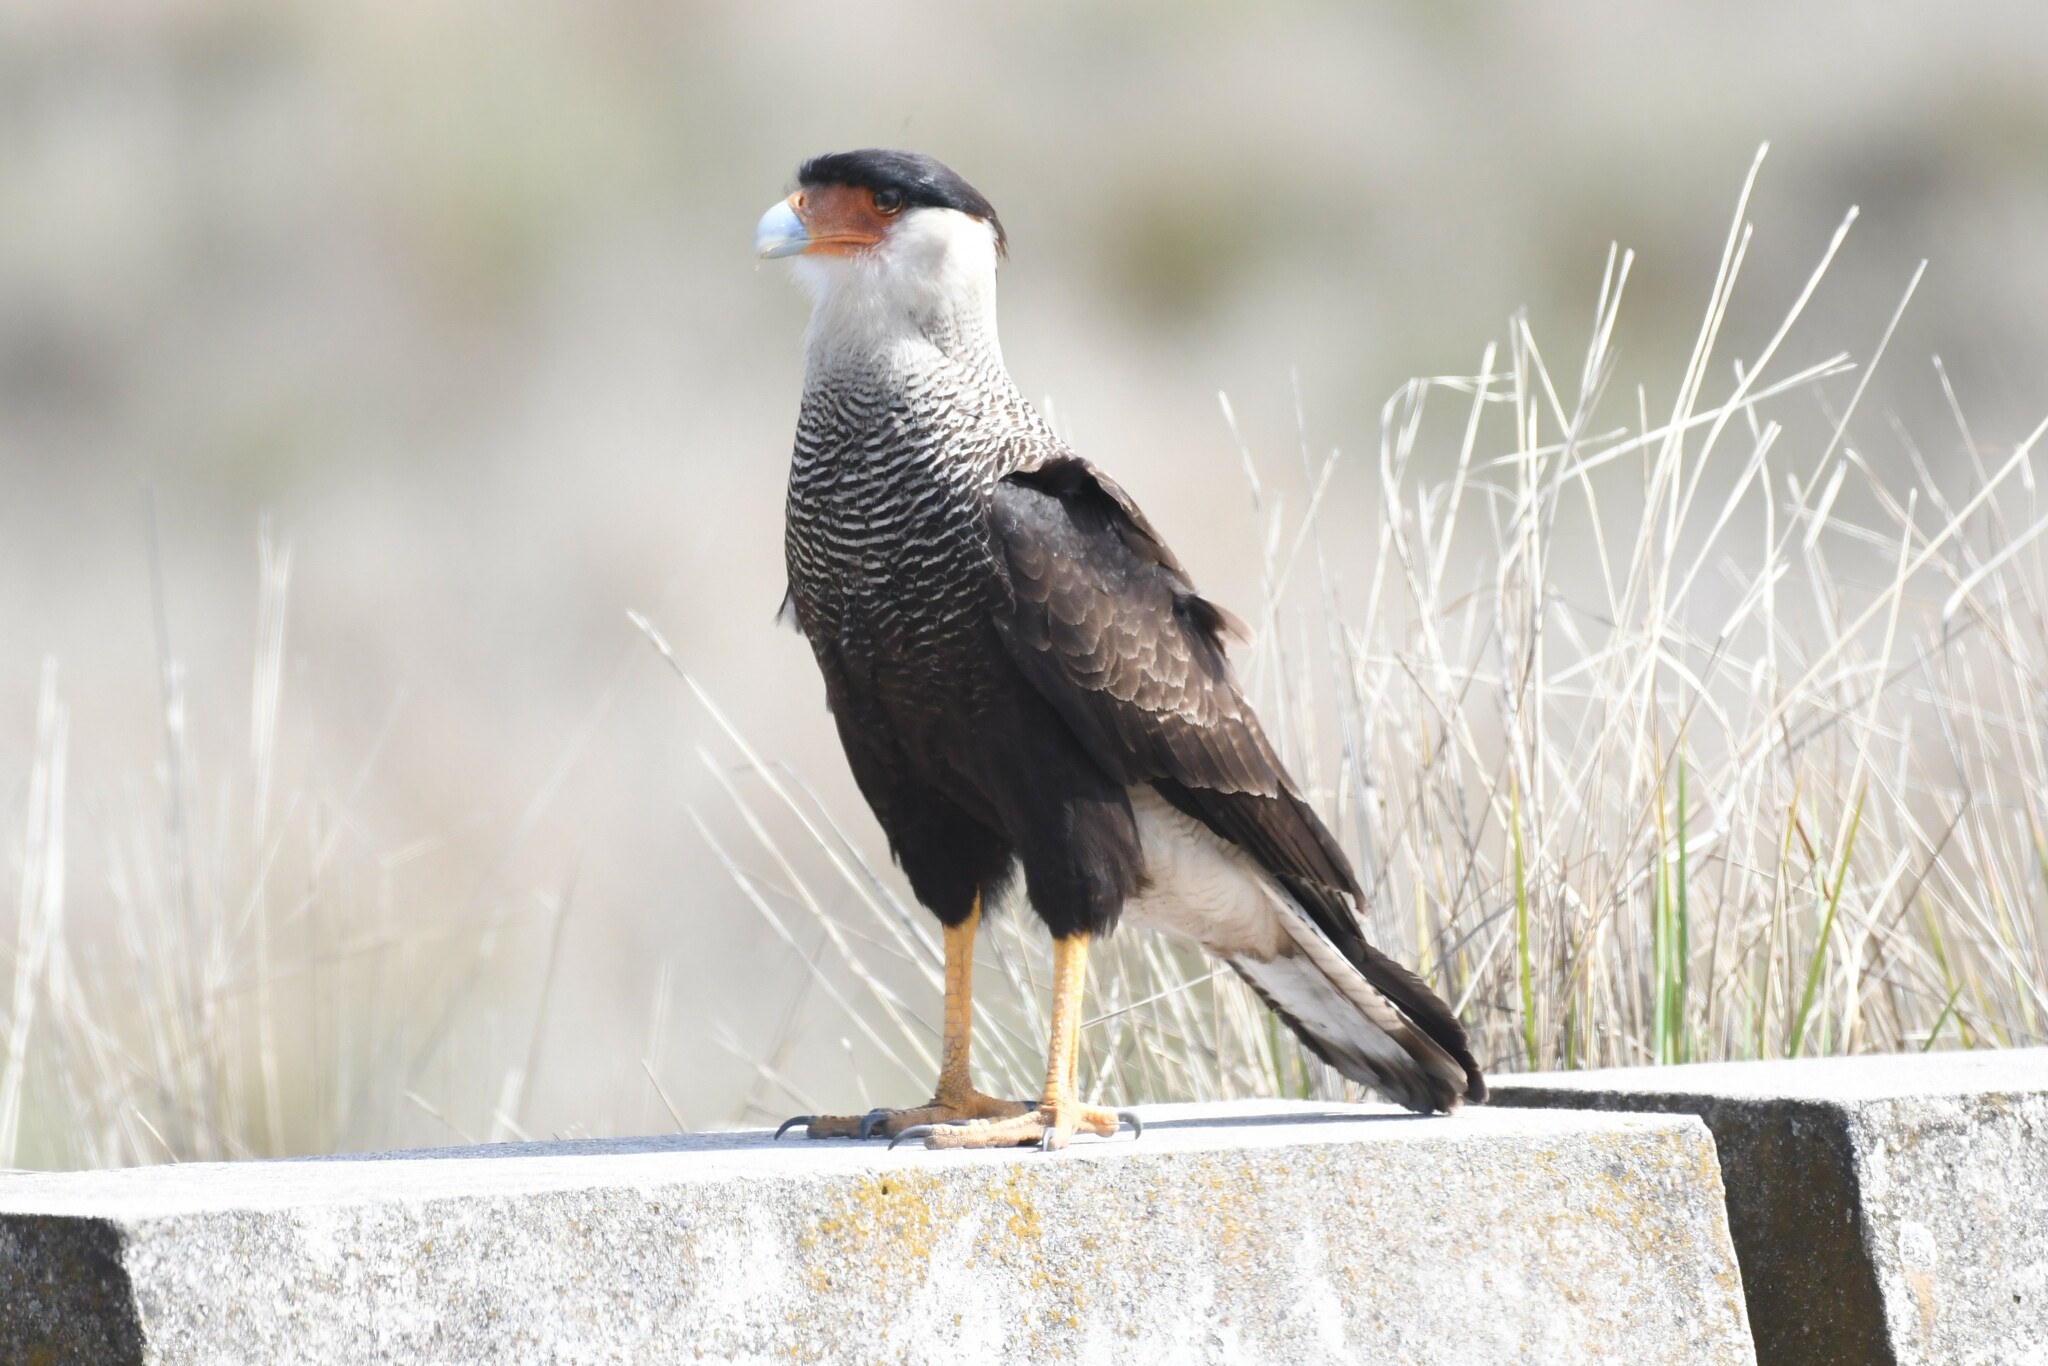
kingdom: Animalia
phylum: Chordata
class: Aves
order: Falconiformes
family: Falconidae
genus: Caracara
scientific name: Caracara plancus
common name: Southern caracara
